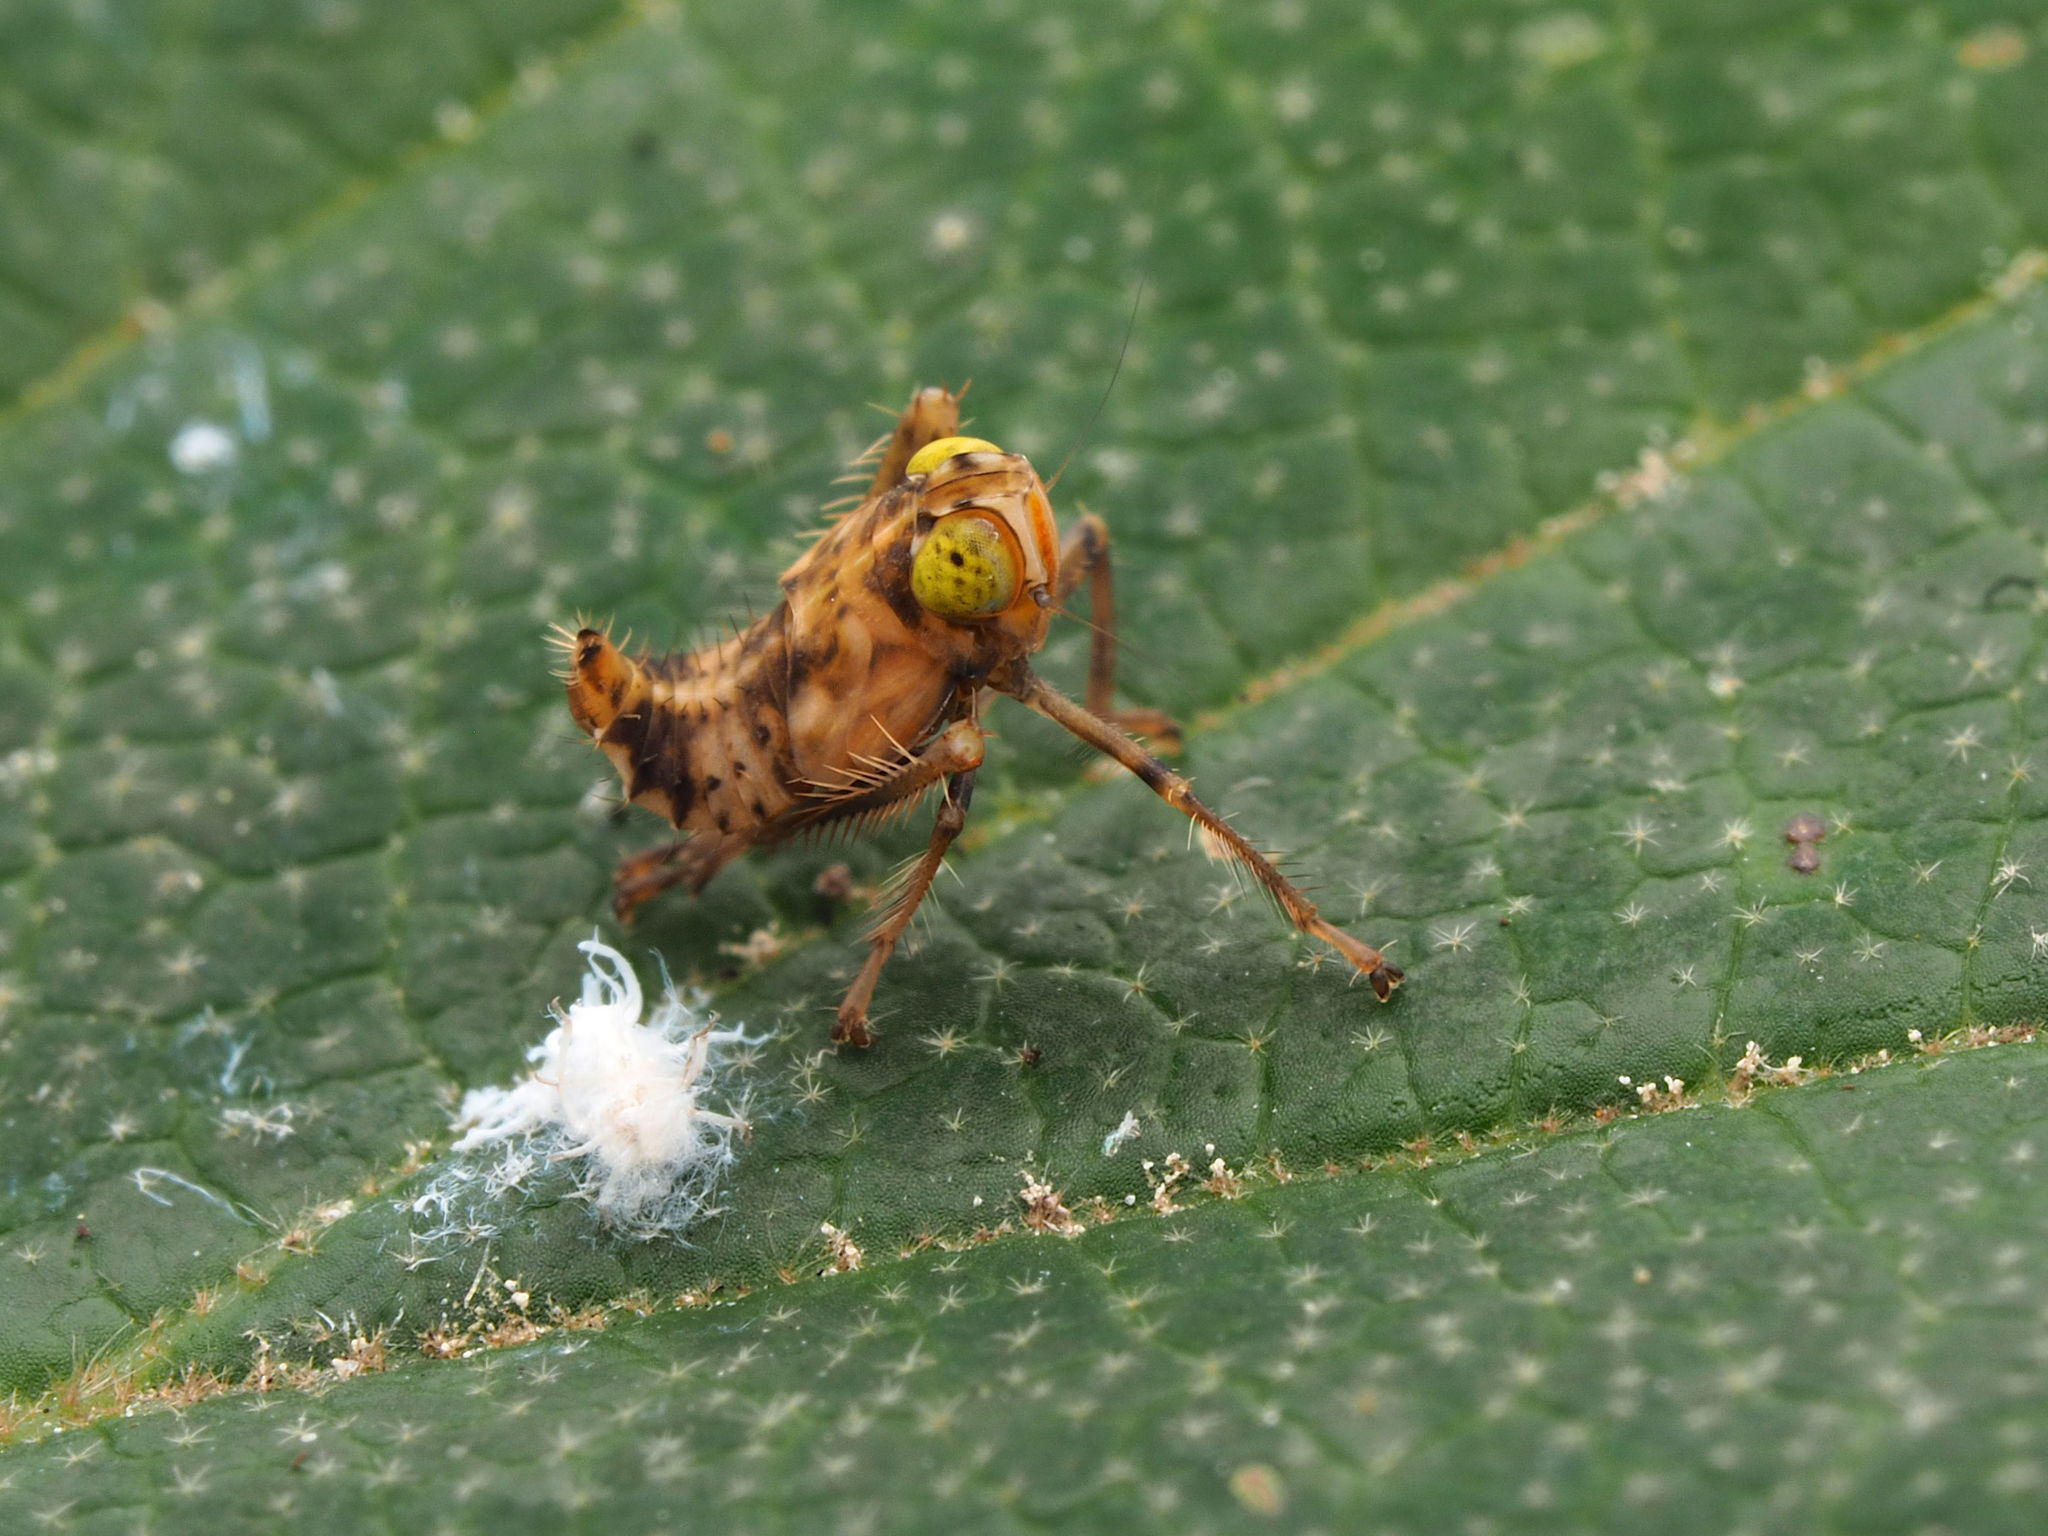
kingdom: Animalia
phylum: Arthropoda
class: Insecta
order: Hemiptera
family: Cicadellidae
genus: Jikradia
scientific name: Jikradia olitoria
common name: Coppery leafhopper
